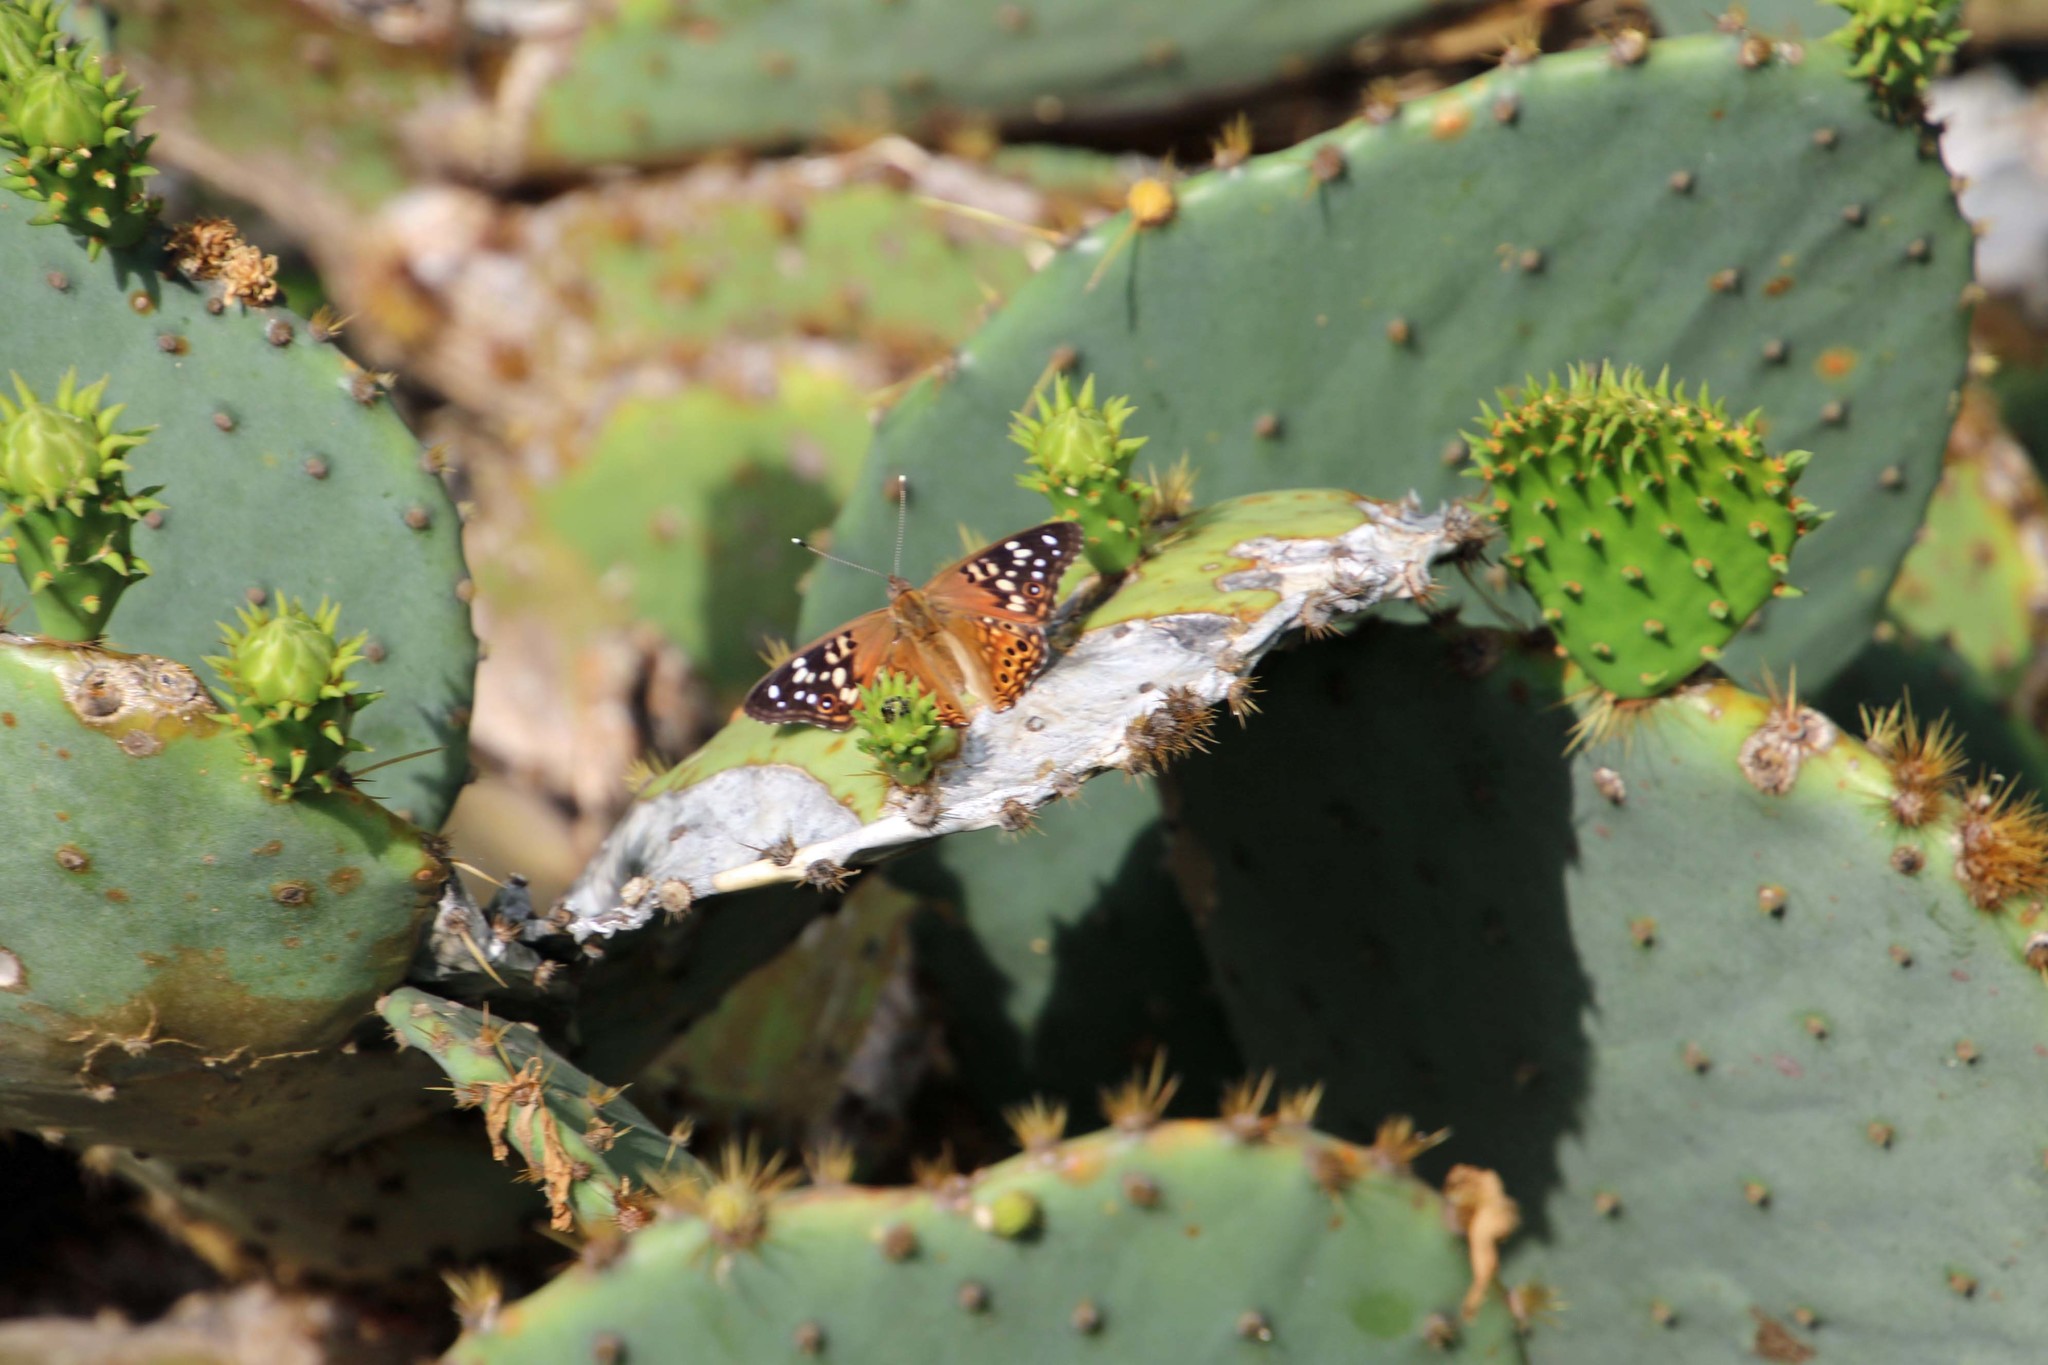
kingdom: Animalia
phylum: Arthropoda
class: Insecta
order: Lepidoptera
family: Nymphalidae
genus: Asterocampa
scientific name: Asterocampa celtis
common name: Hackberry emperor
